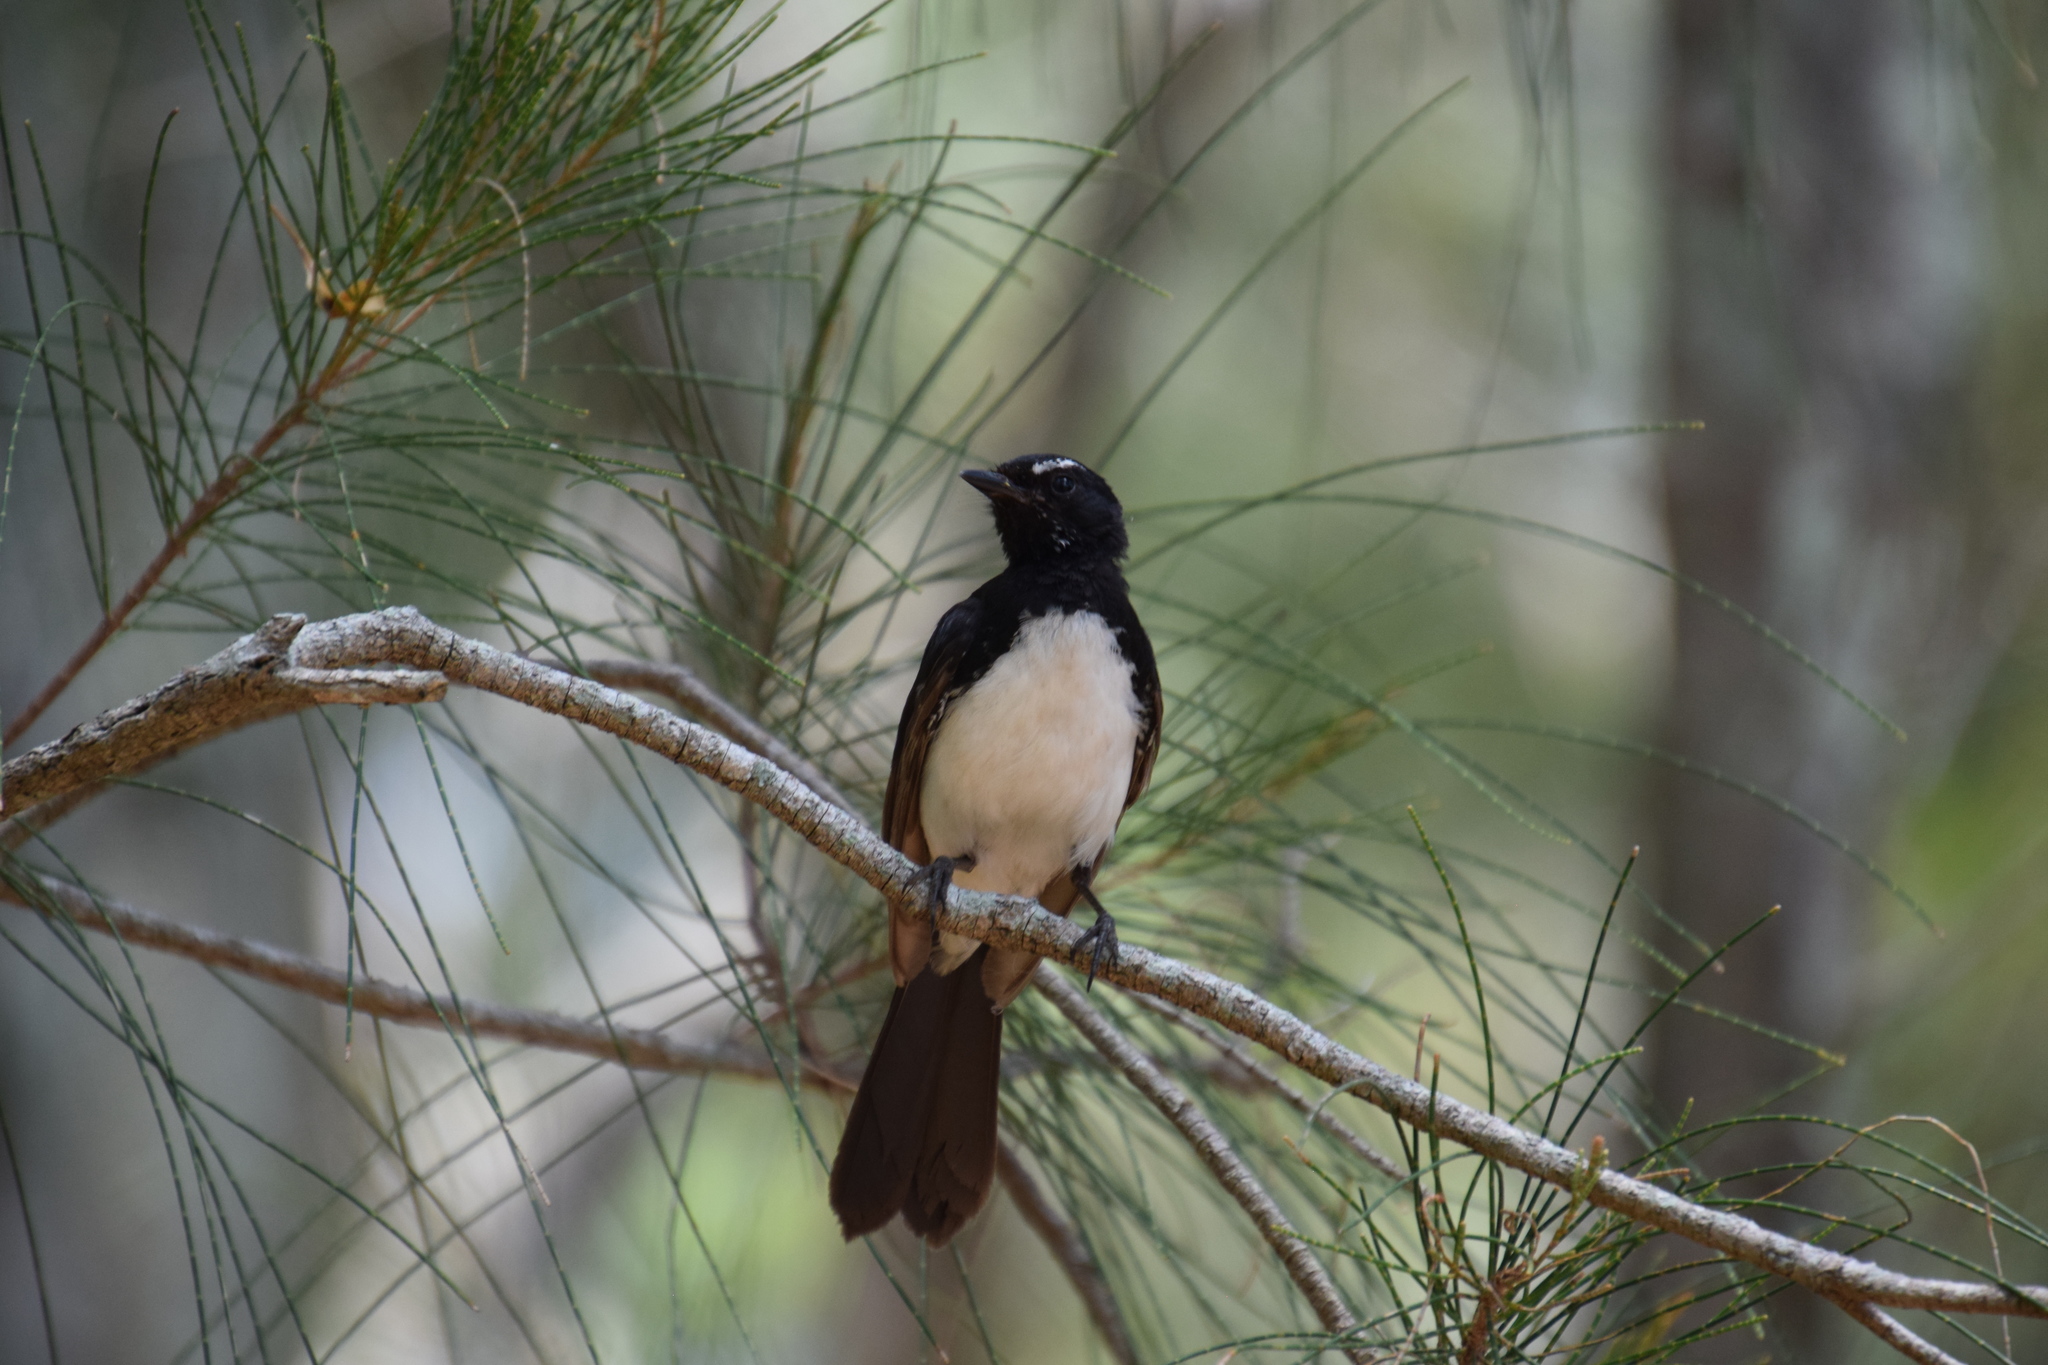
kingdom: Animalia
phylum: Chordata
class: Aves
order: Passeriformes
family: Rhipiduridae
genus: Rhipidura
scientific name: Rhipidura leucophrys
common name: Willie wagtail
